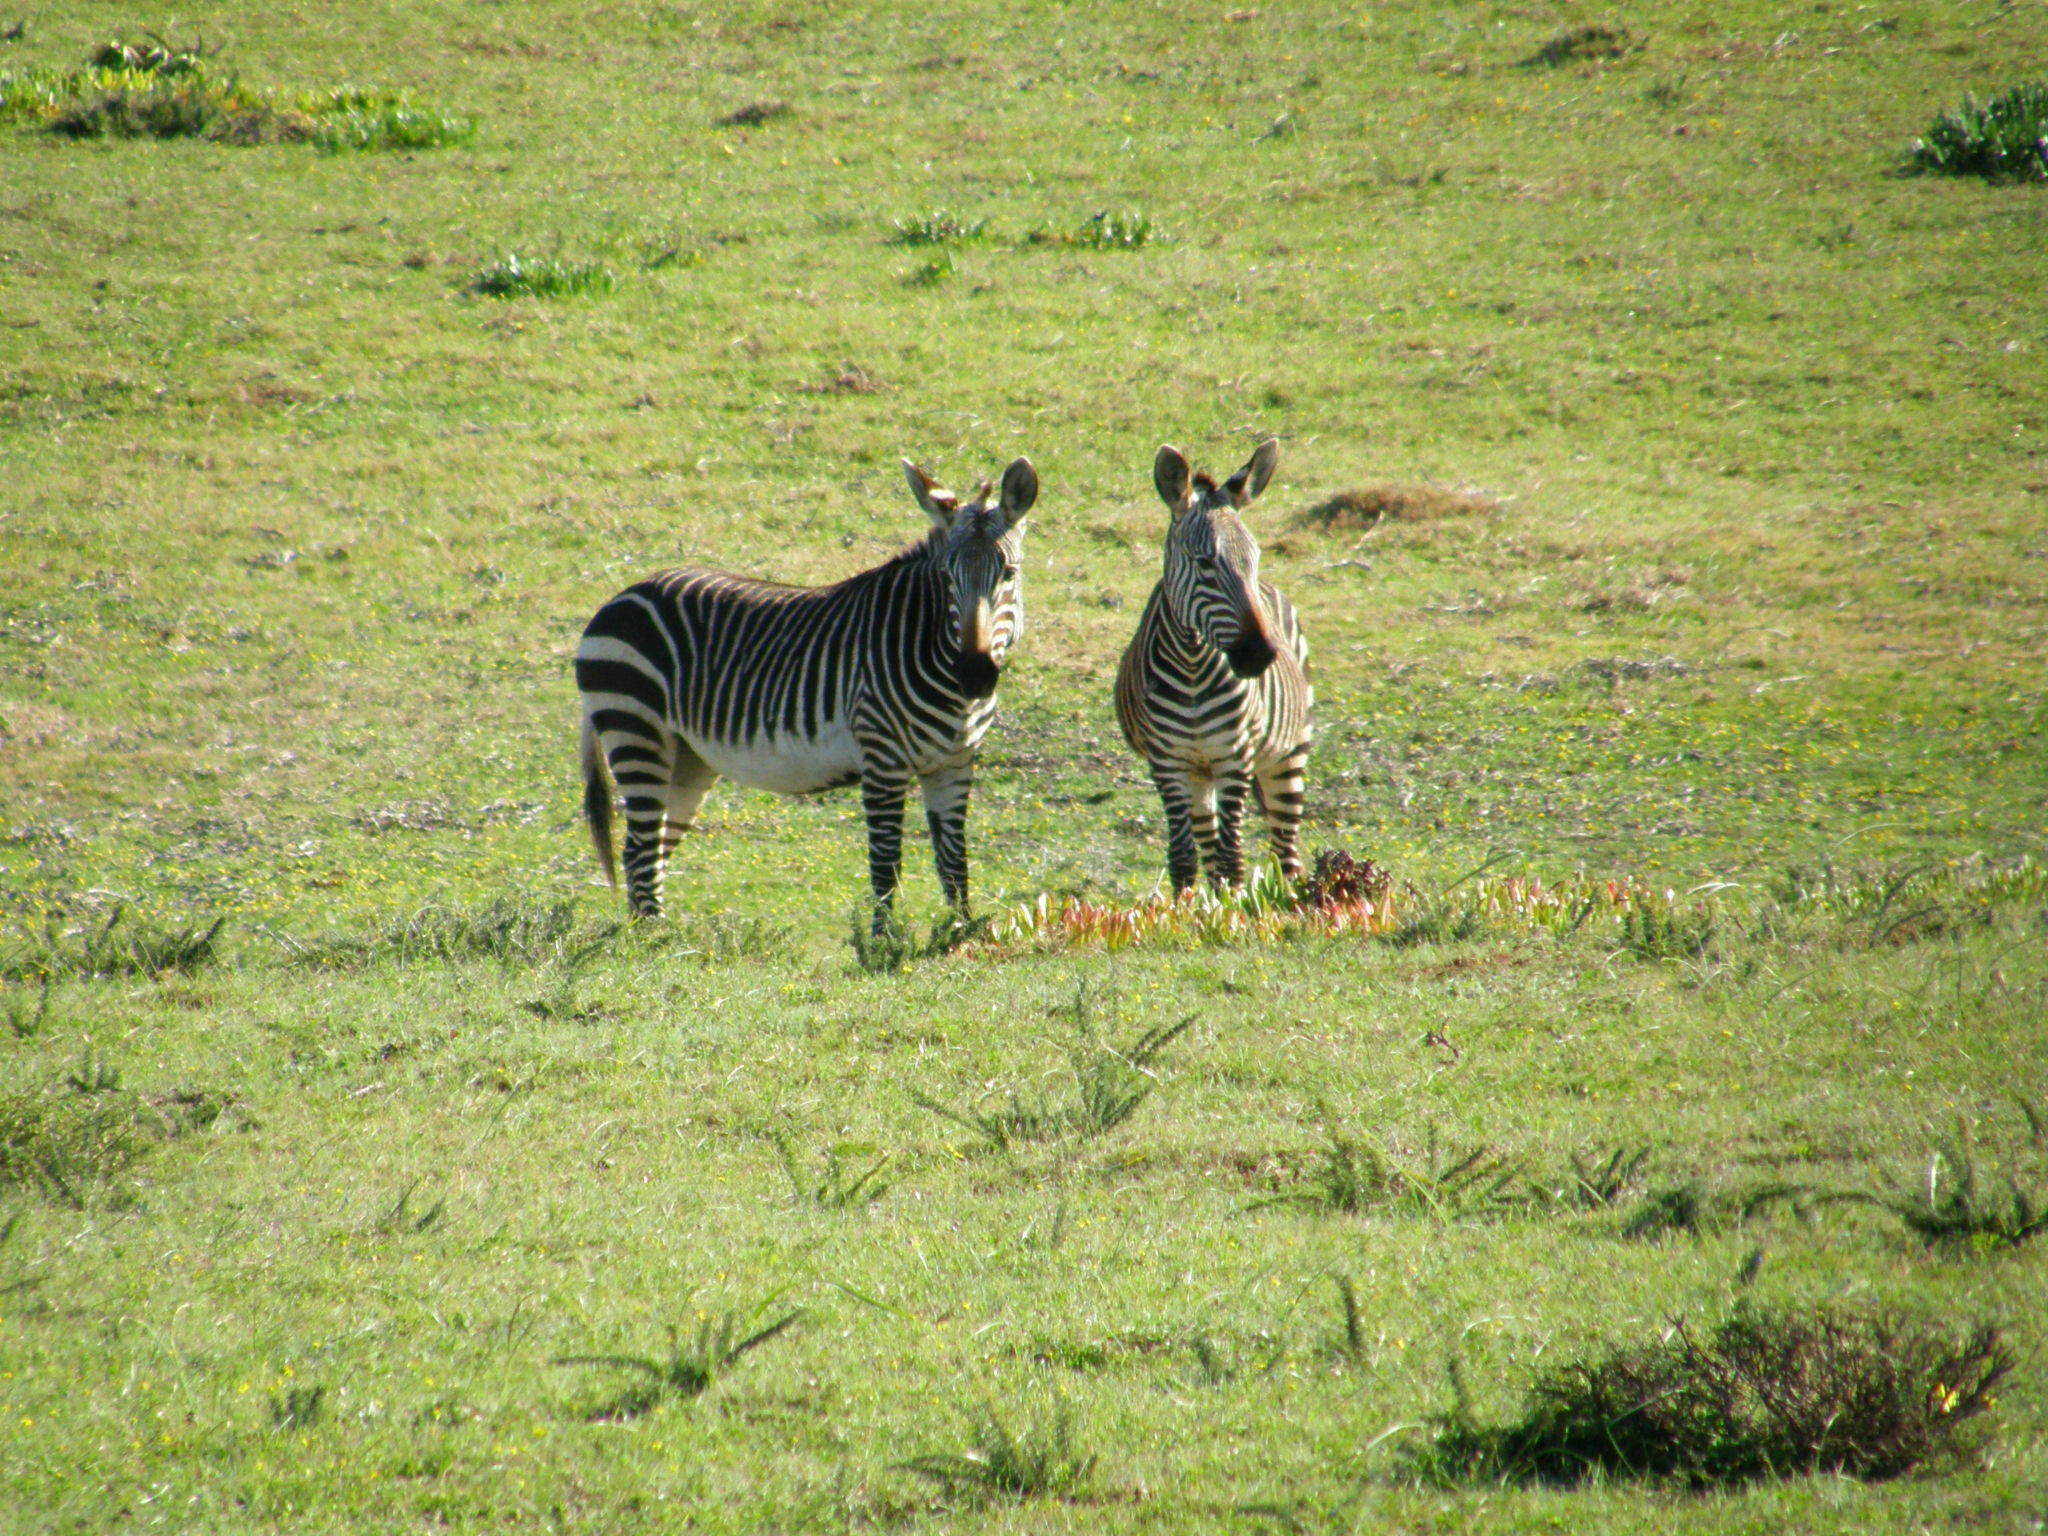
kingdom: Animalia
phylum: Chordata
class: Mammalia
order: Perissodactyla
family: Equidae
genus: Equus
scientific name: Equus zebra
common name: Mountain zebra
